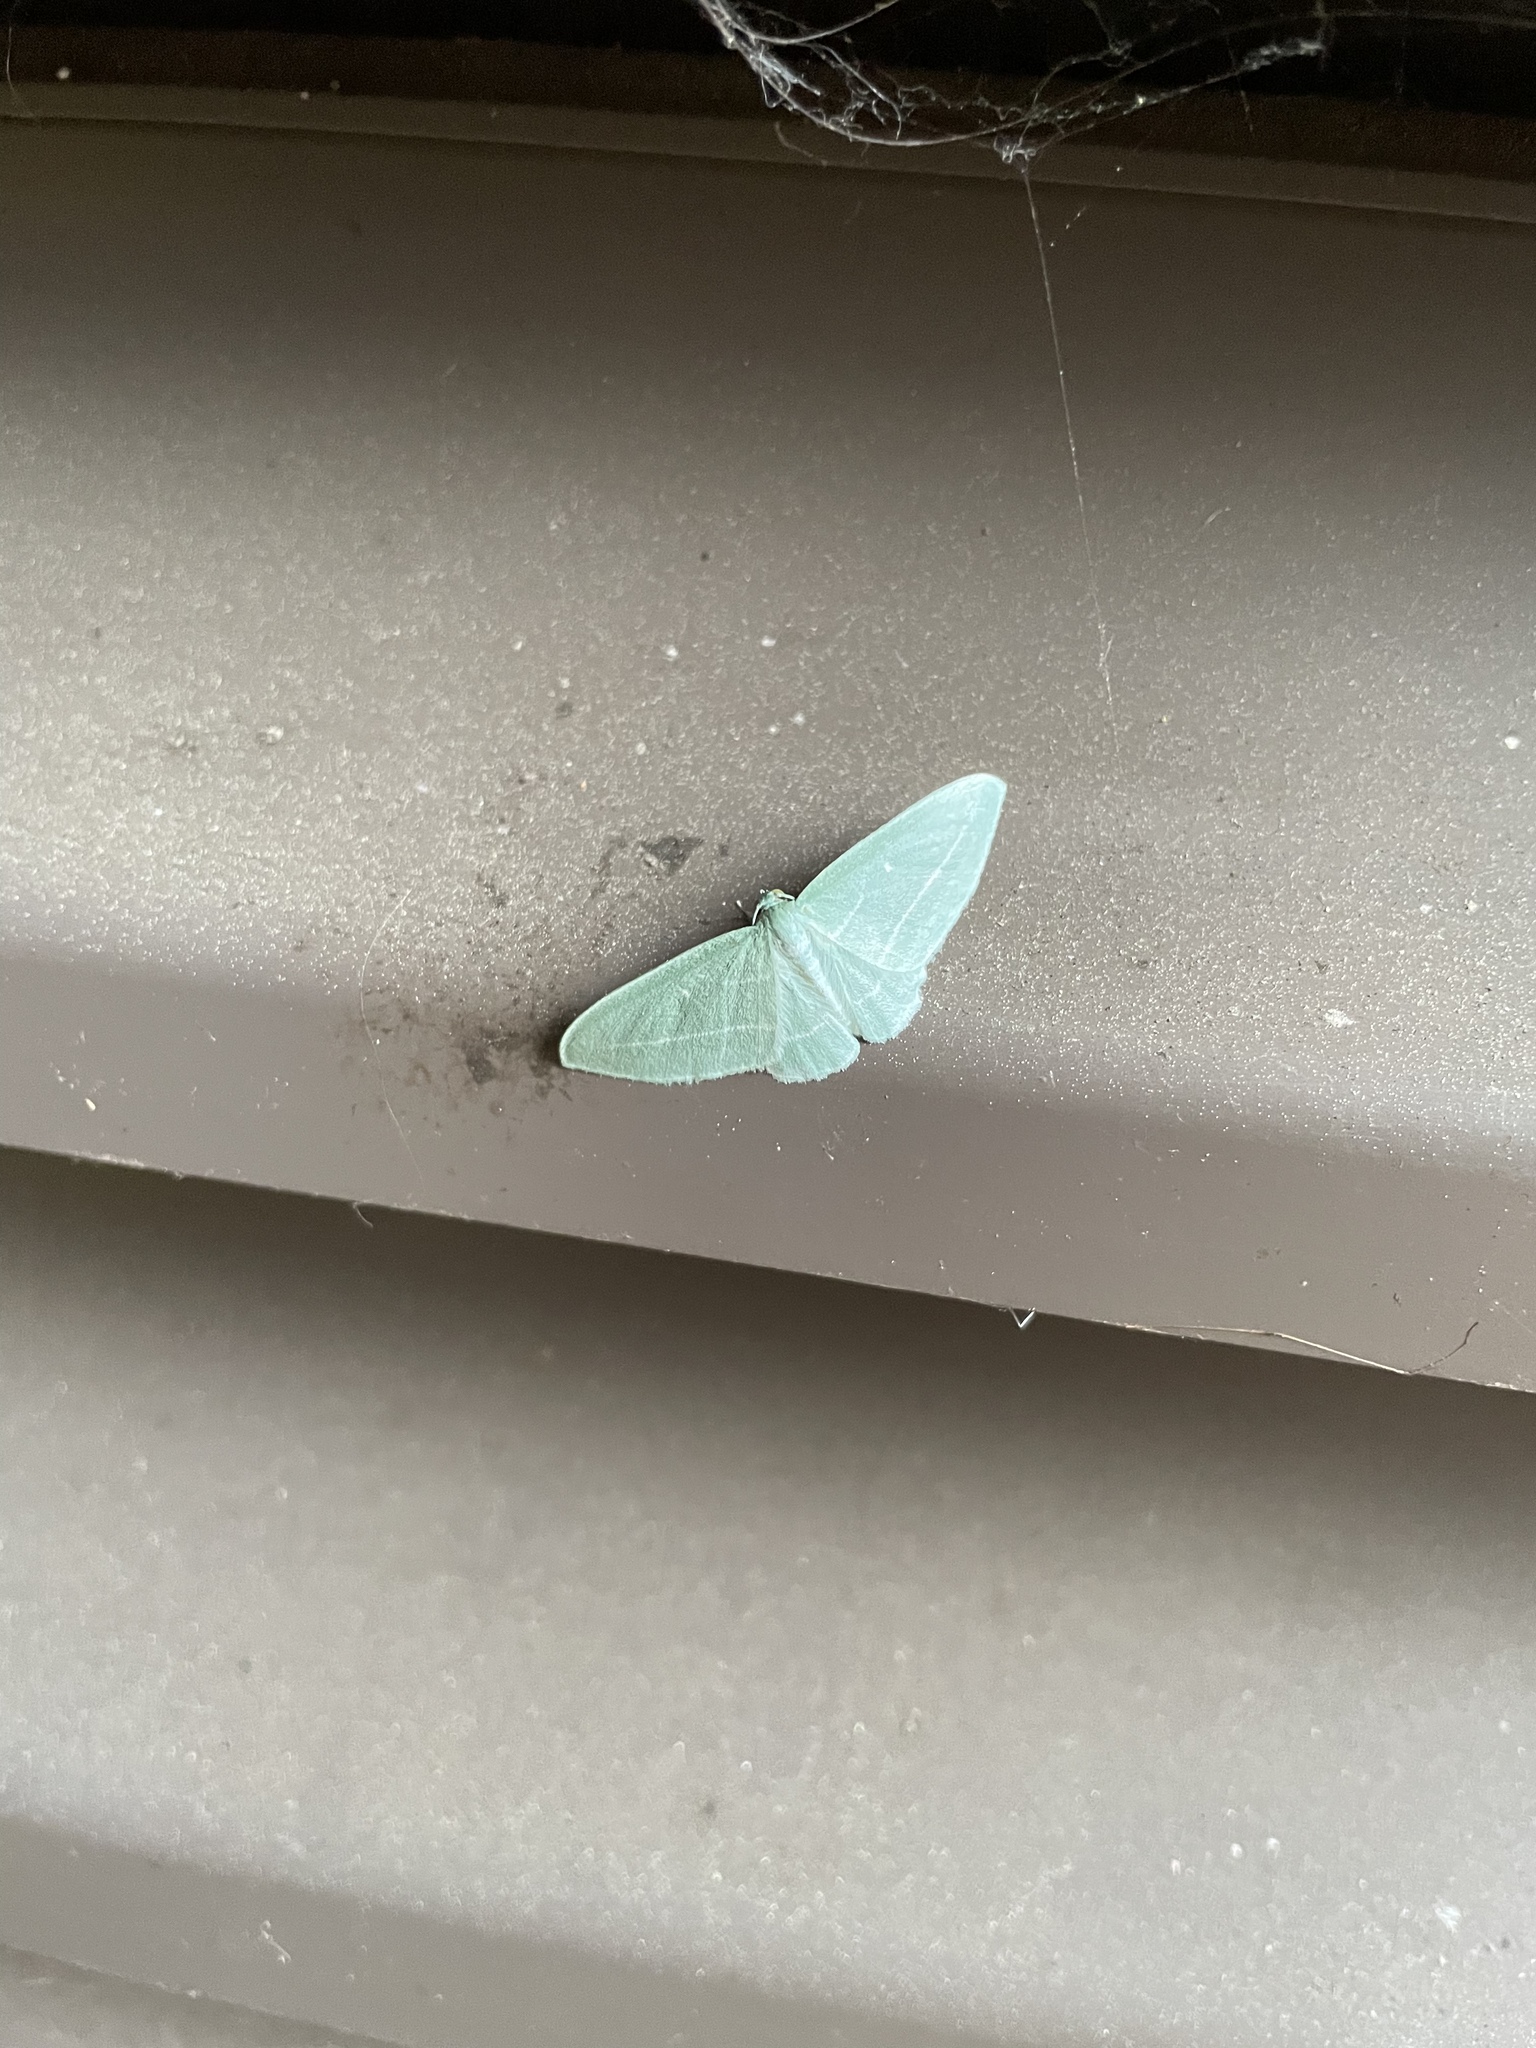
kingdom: Animalia
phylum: Arthropoda
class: Insecta
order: Lepidoptera
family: Geometridae
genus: Dyspteris
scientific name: Dyspteris abortivaria
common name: Bad-wing
